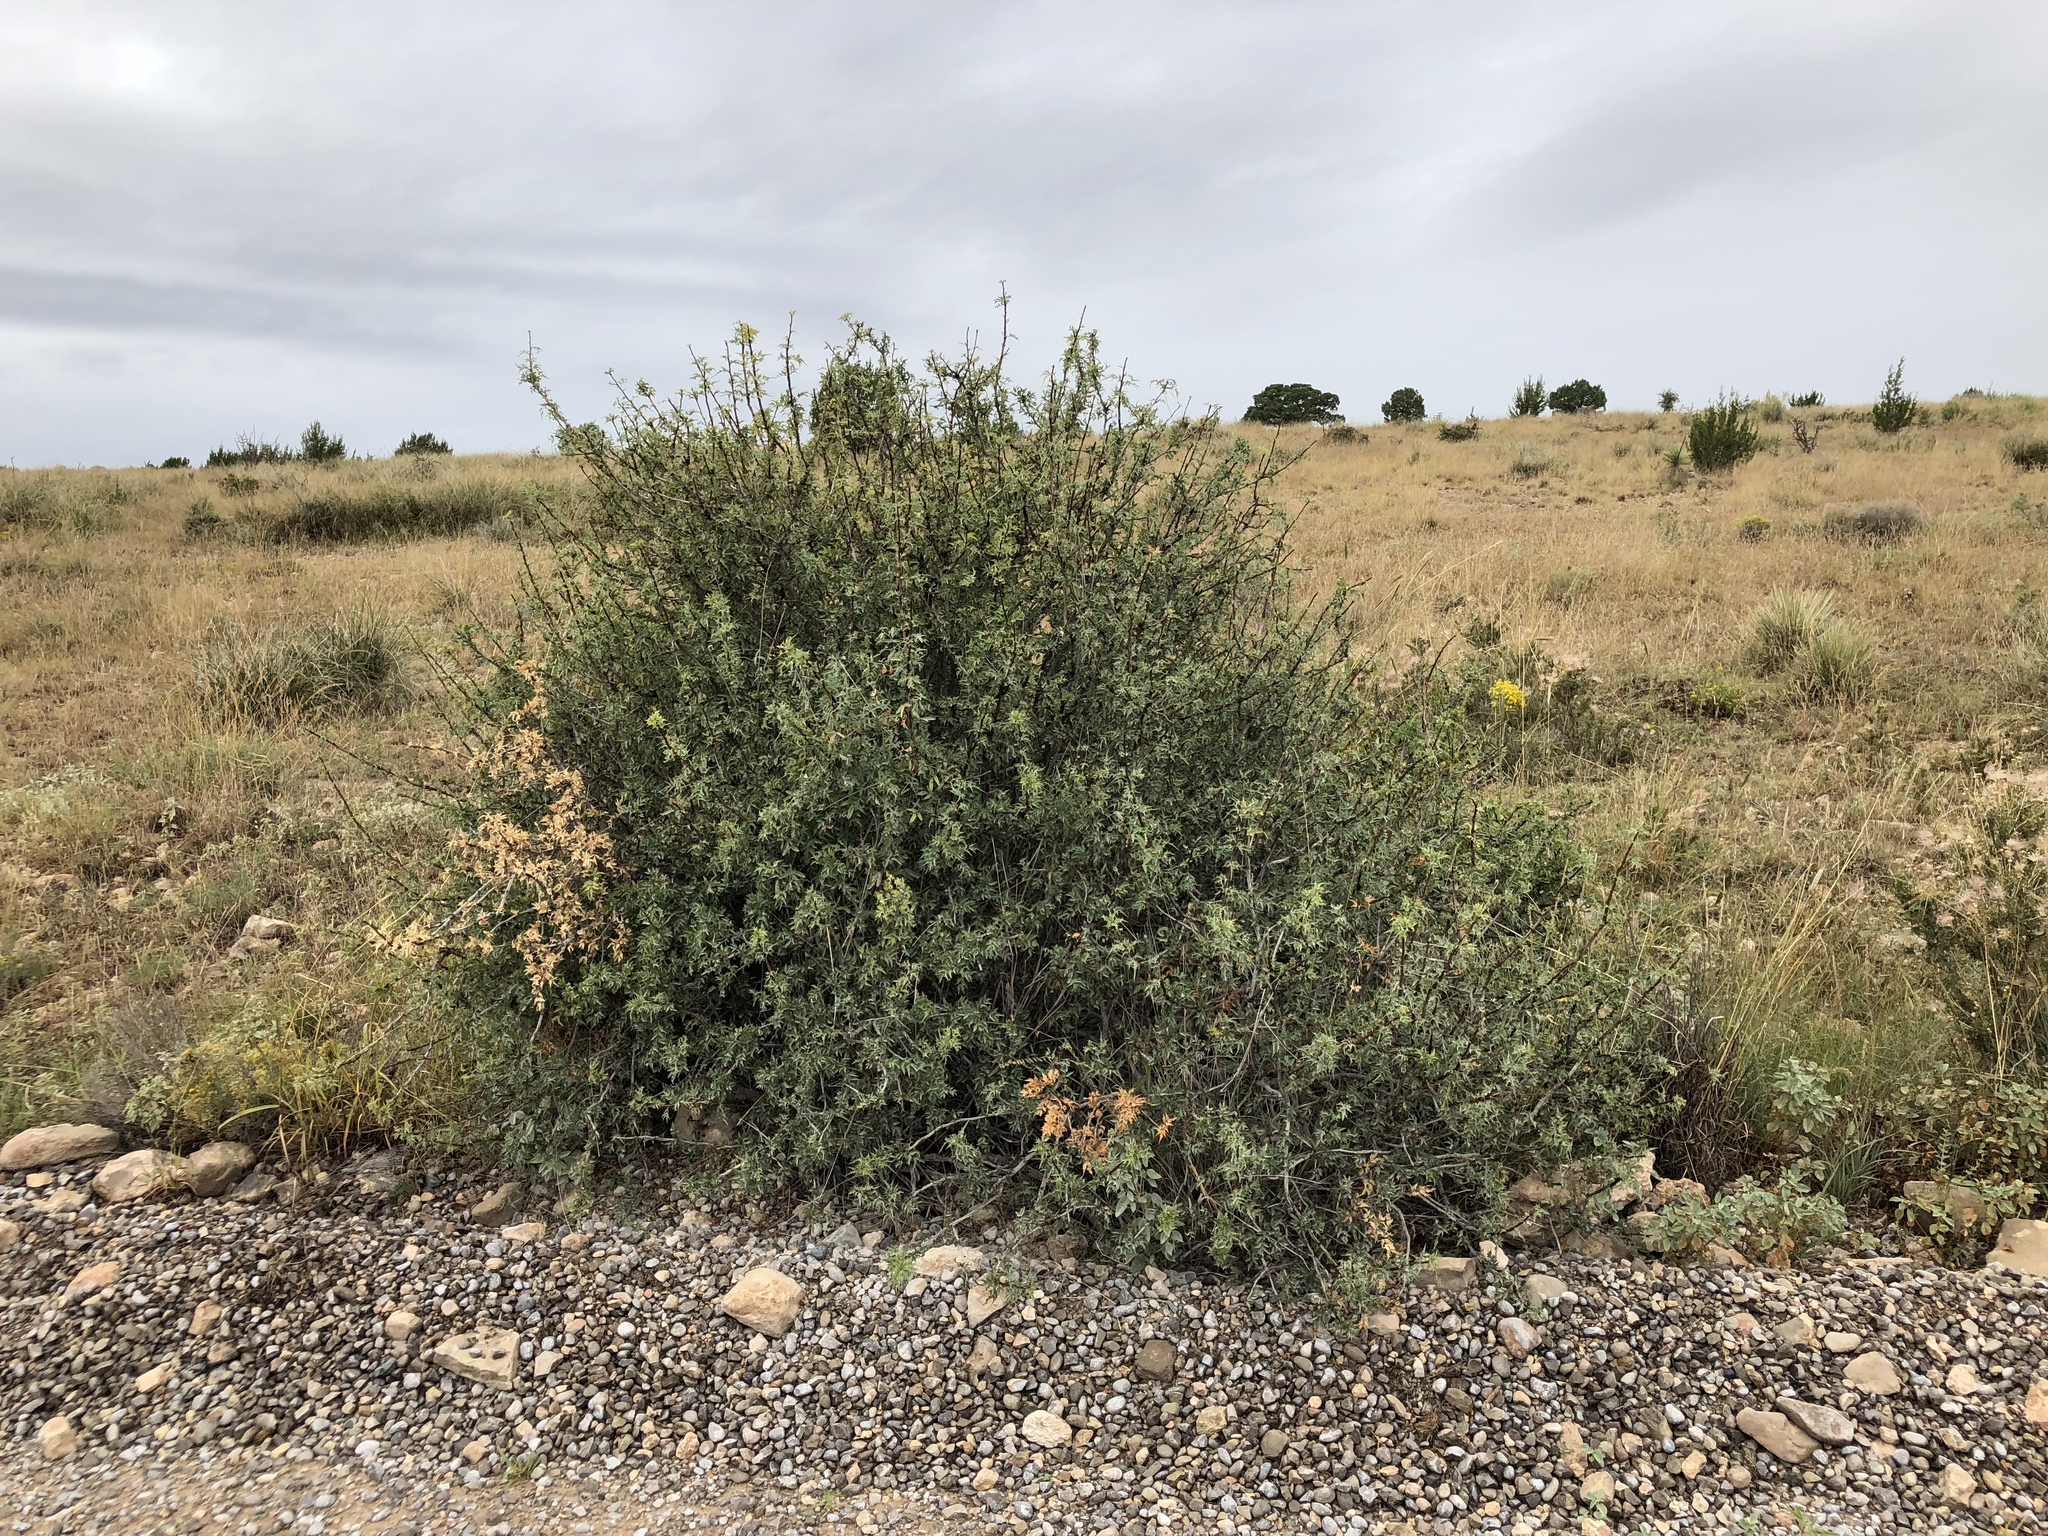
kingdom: Plantae
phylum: Tracheophyta
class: Magnoliopsida
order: Ranunculales
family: Berberidaceae
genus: Alloberberis
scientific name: Alloberberis haematocarpa
